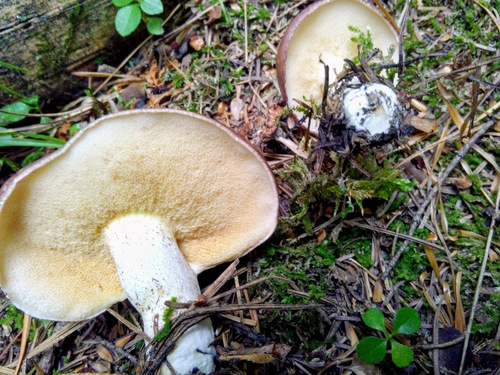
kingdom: Fungi
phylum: Basidiomycota
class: Agaricomycetes
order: Boletales
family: Suillaceae
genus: Suillus
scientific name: Suillus placidus
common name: Slippery white bolete
